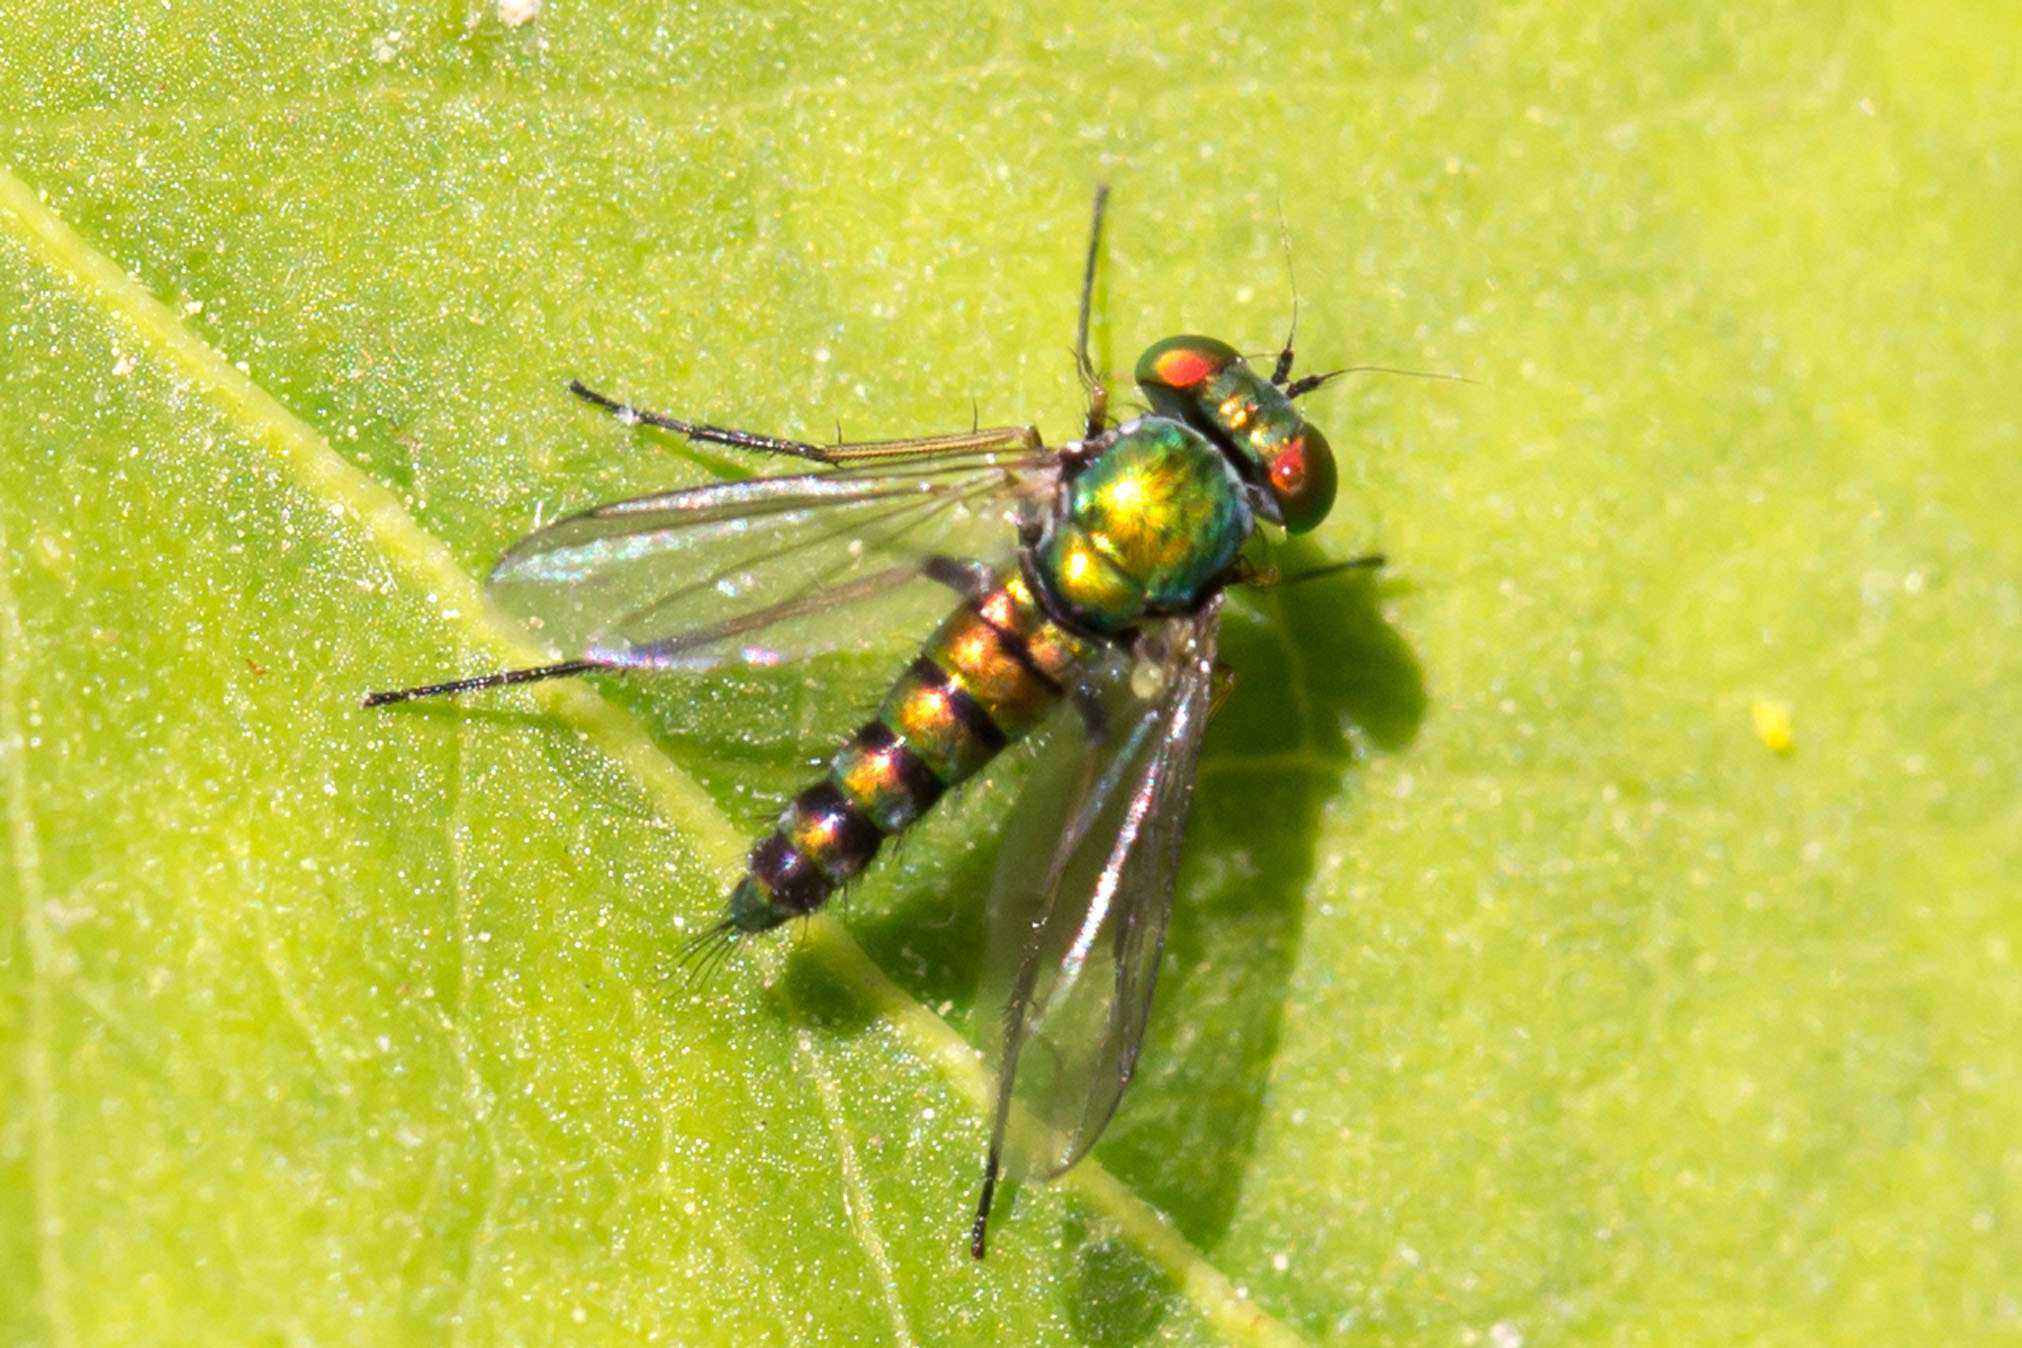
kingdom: Animalia
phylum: Arthropoda
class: Insecta
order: Diptera
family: Dolichopodidae
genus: Condylostylus
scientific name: Condylostylus caudatus
